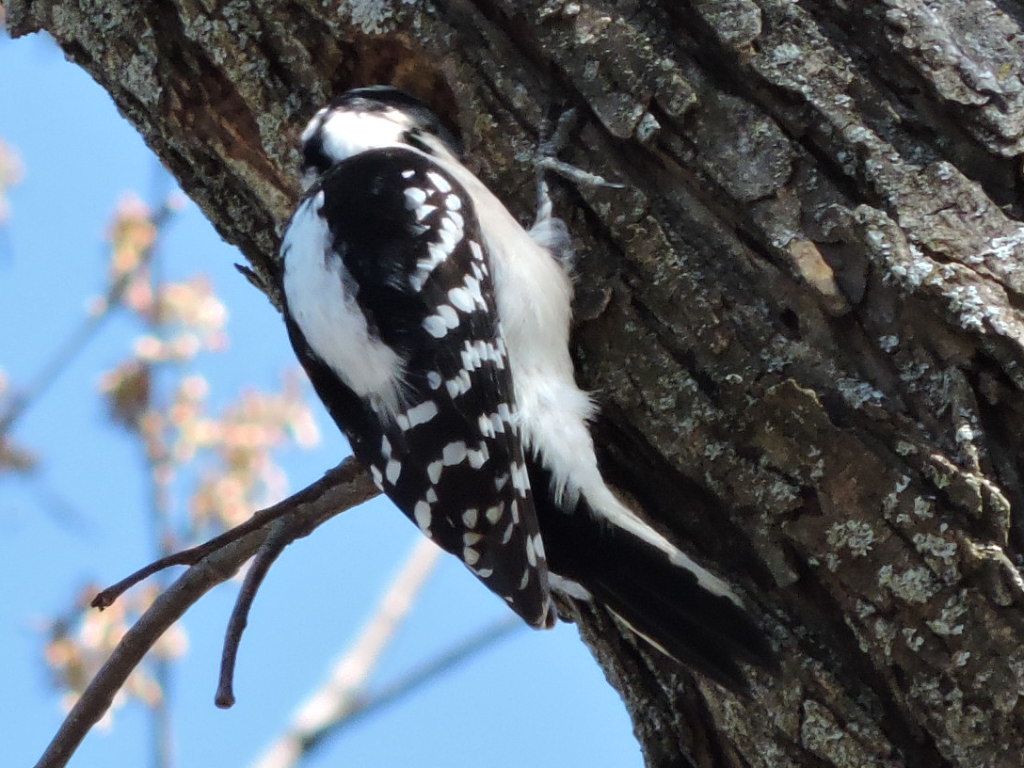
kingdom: Animalia
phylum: Chordata
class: Aves
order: Piciformes
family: Picidae
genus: Dryobates
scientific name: Dryobates pubescens
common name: Downy woodpecker
